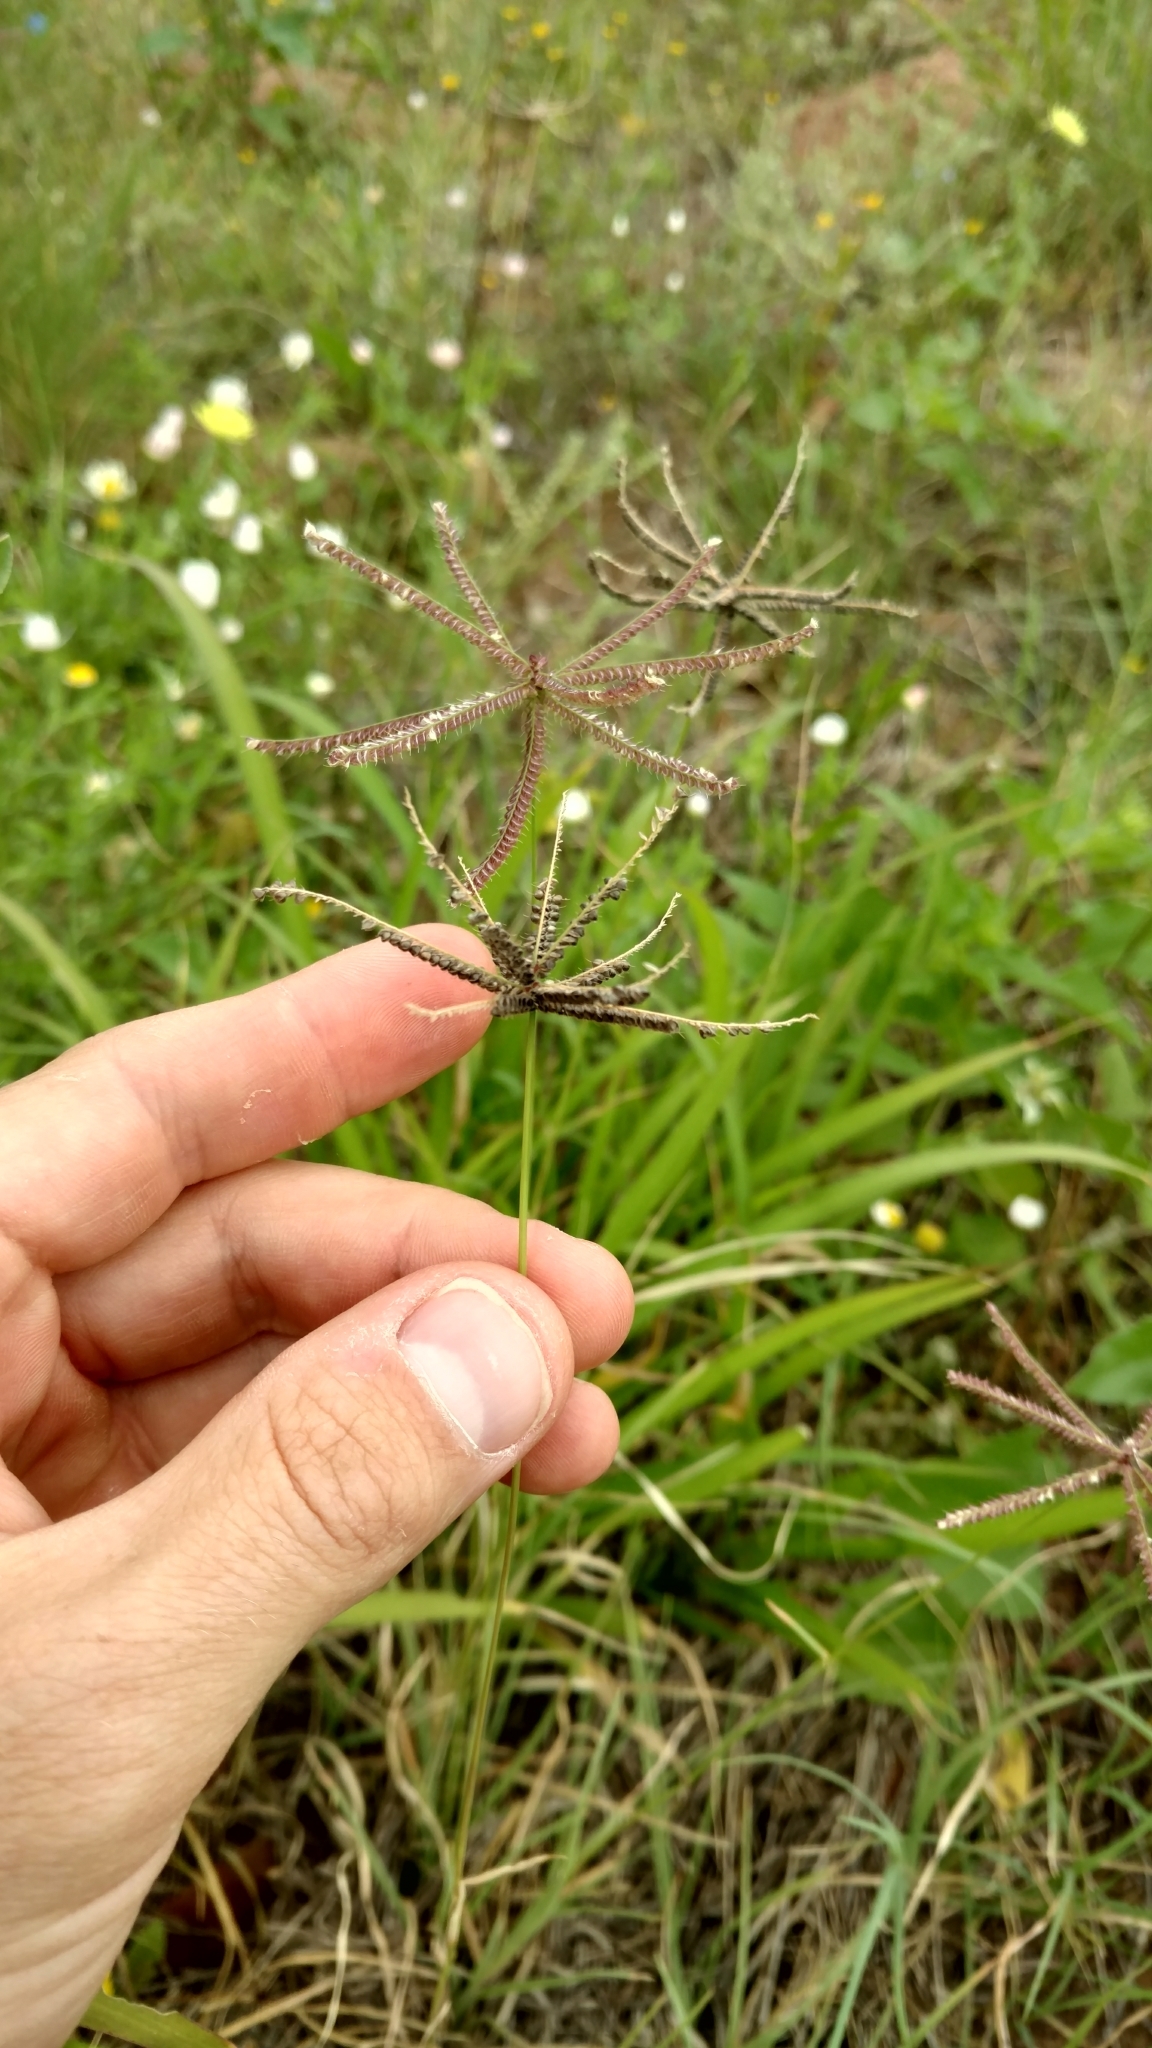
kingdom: Plantae
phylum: Tracheophyta
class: Liliopsida
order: Poales
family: Poaceae
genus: Chloris
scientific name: Chloris cucullata
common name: Hooded windmill grass
